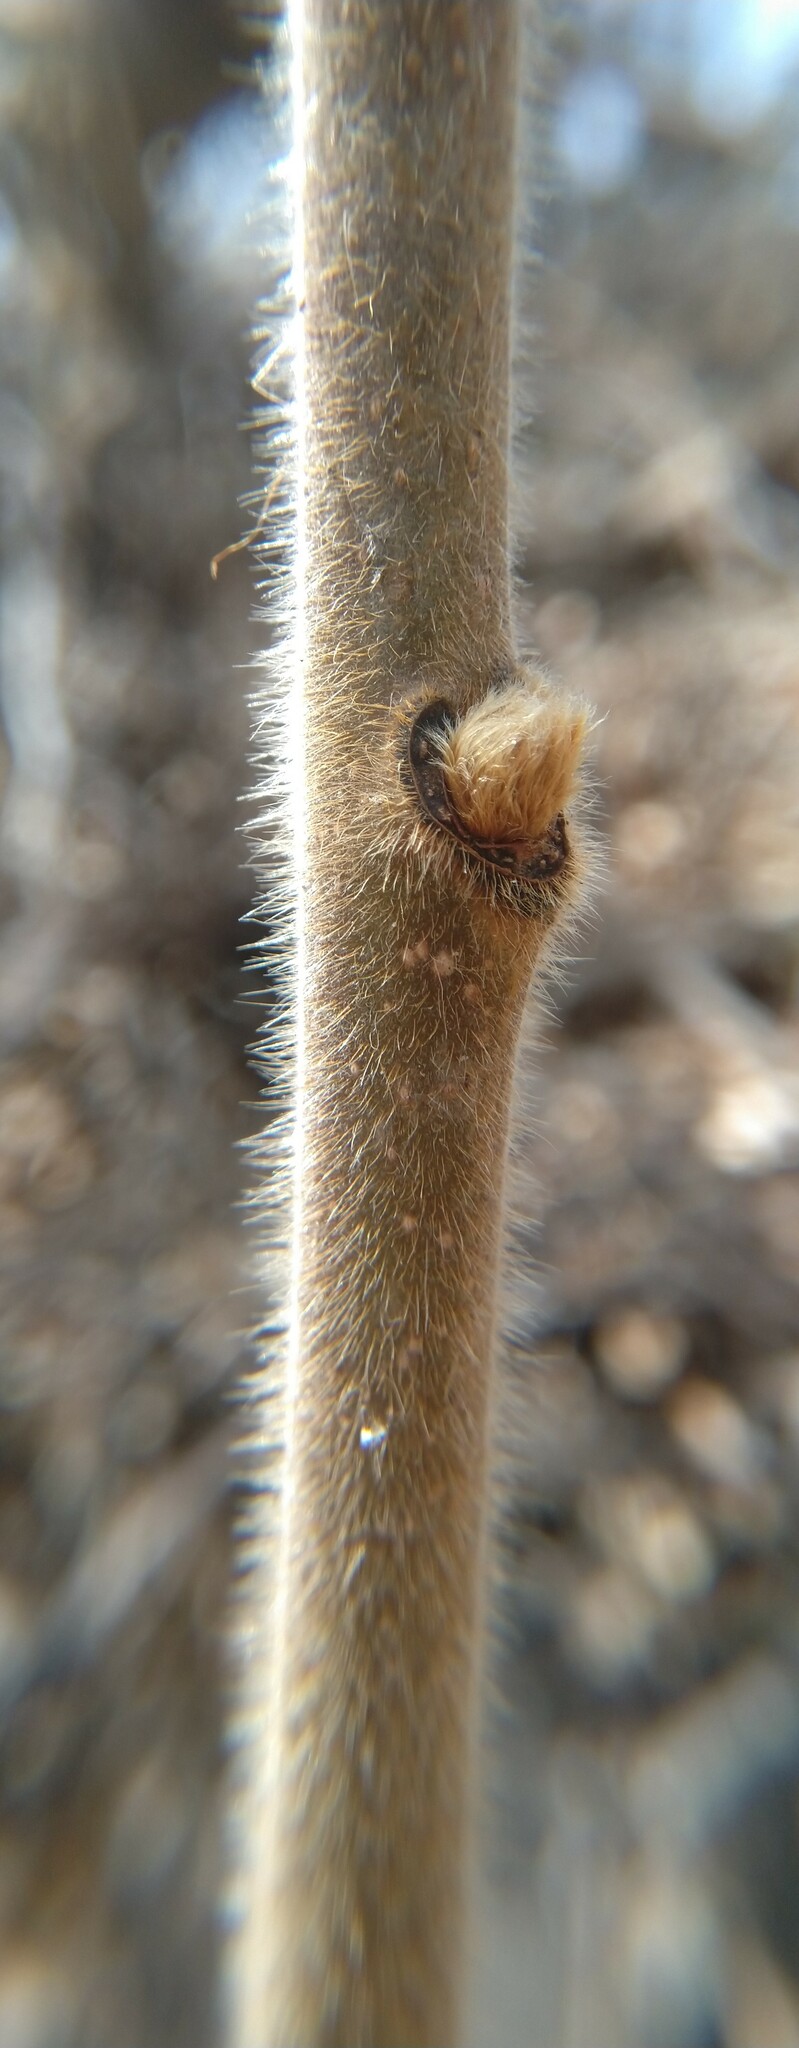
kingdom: Plantae
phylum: Tracheophyta
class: Magnoliopsida
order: Sapindales
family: Anacardiaceae
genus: Rhus
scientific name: Rhus typhina
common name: Staghorn sumac
